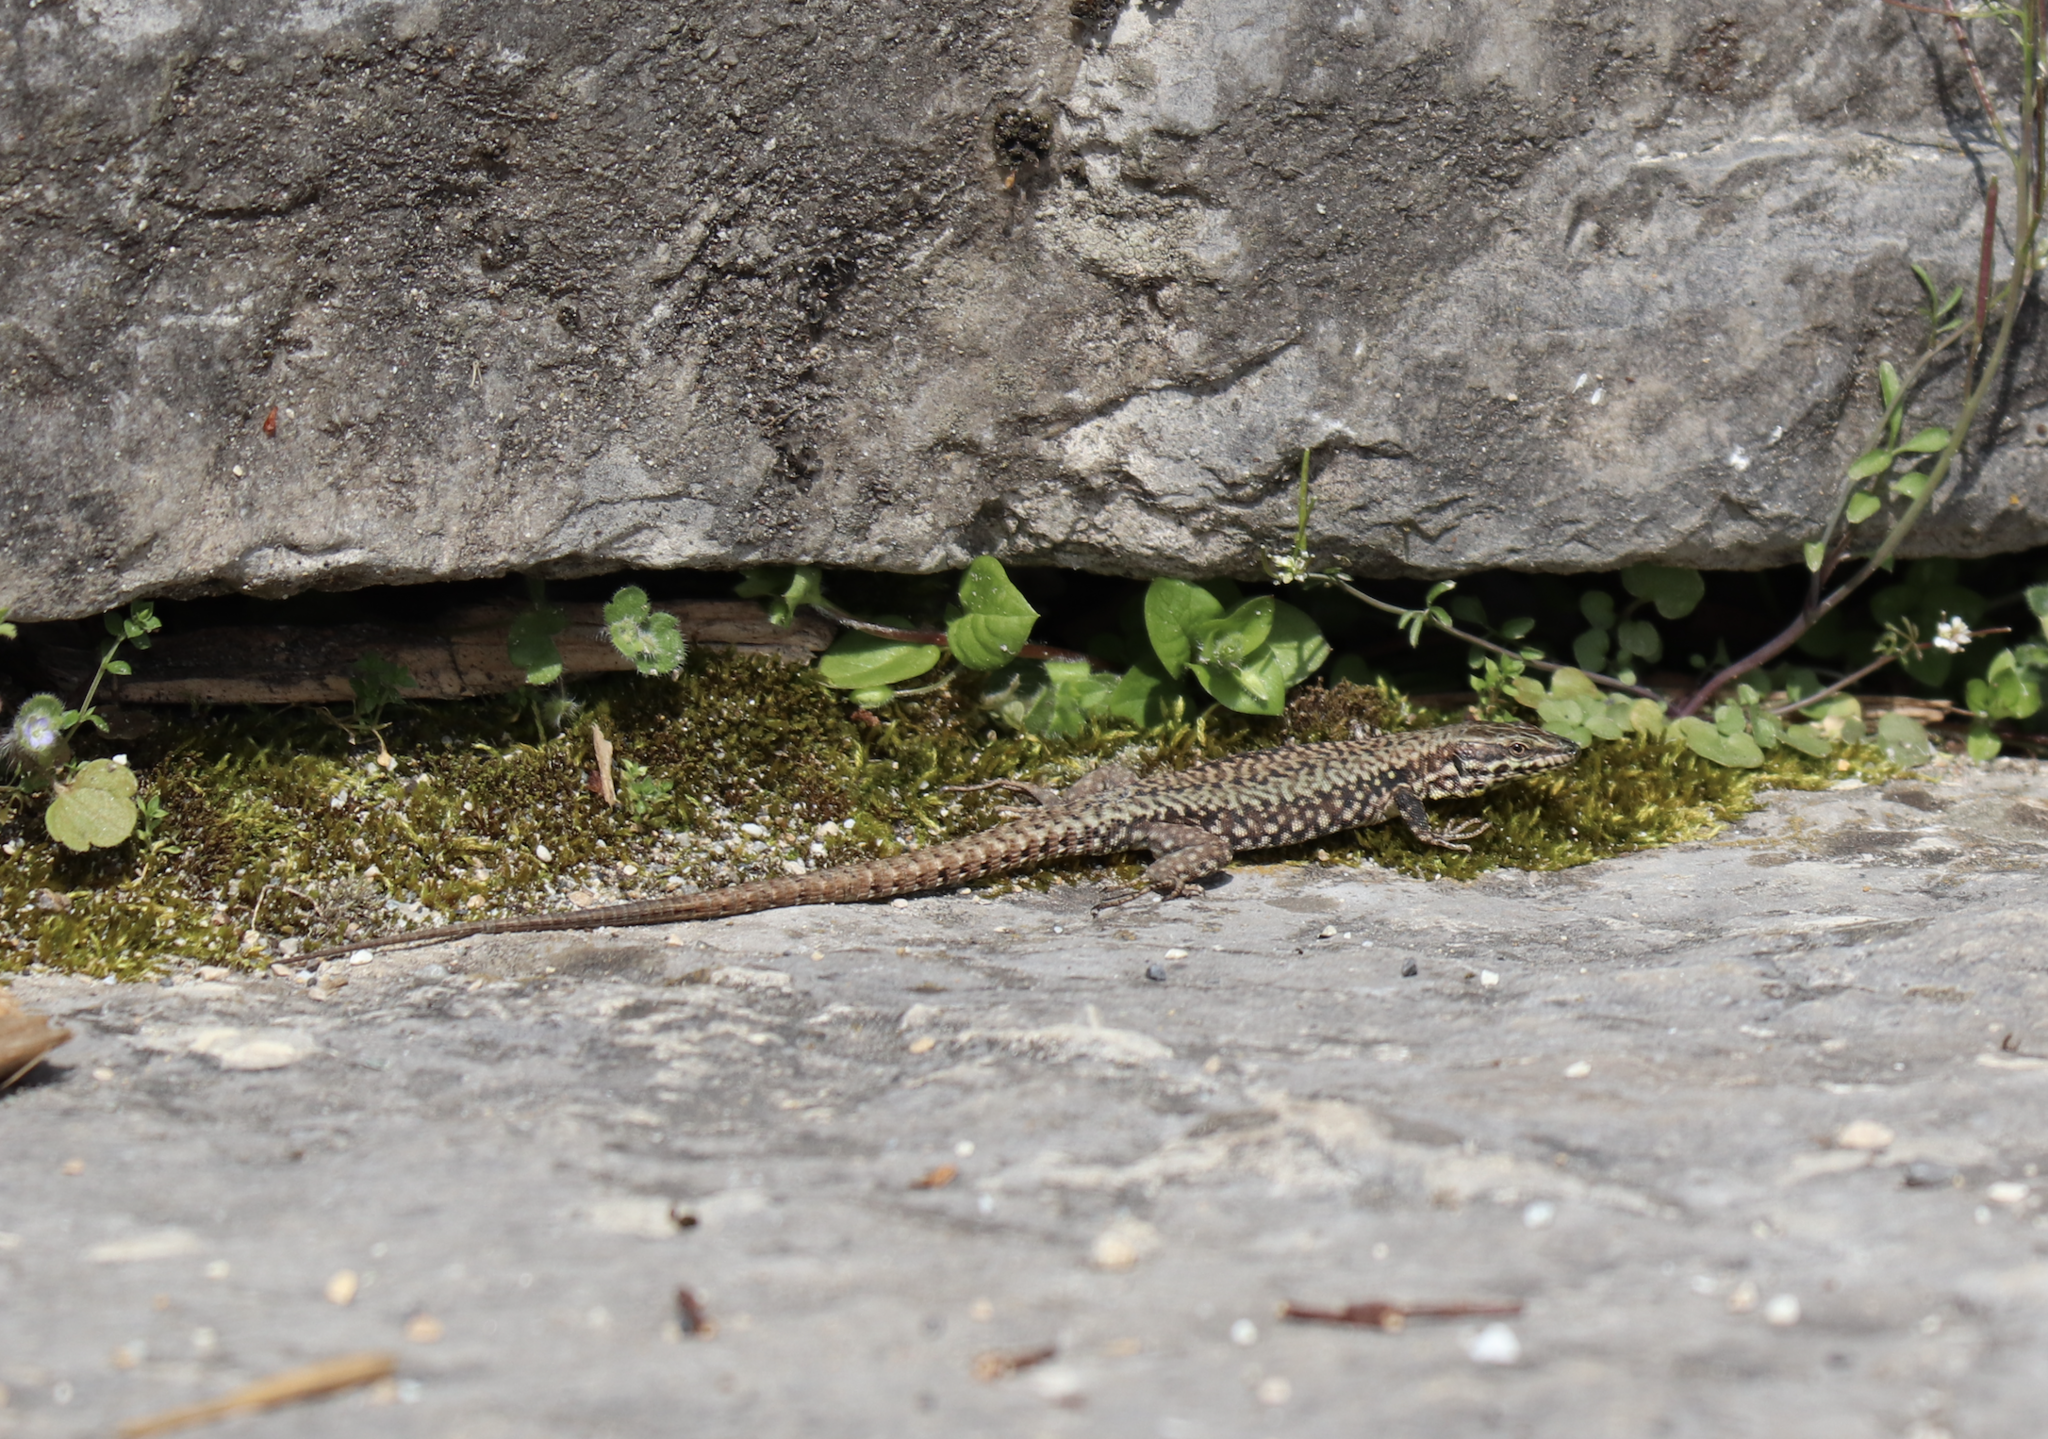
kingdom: Animalia
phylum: Chordata
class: Squamata
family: Lacertidae
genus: Podarcis
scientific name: Podarcis muralis
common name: Common wall lizard
